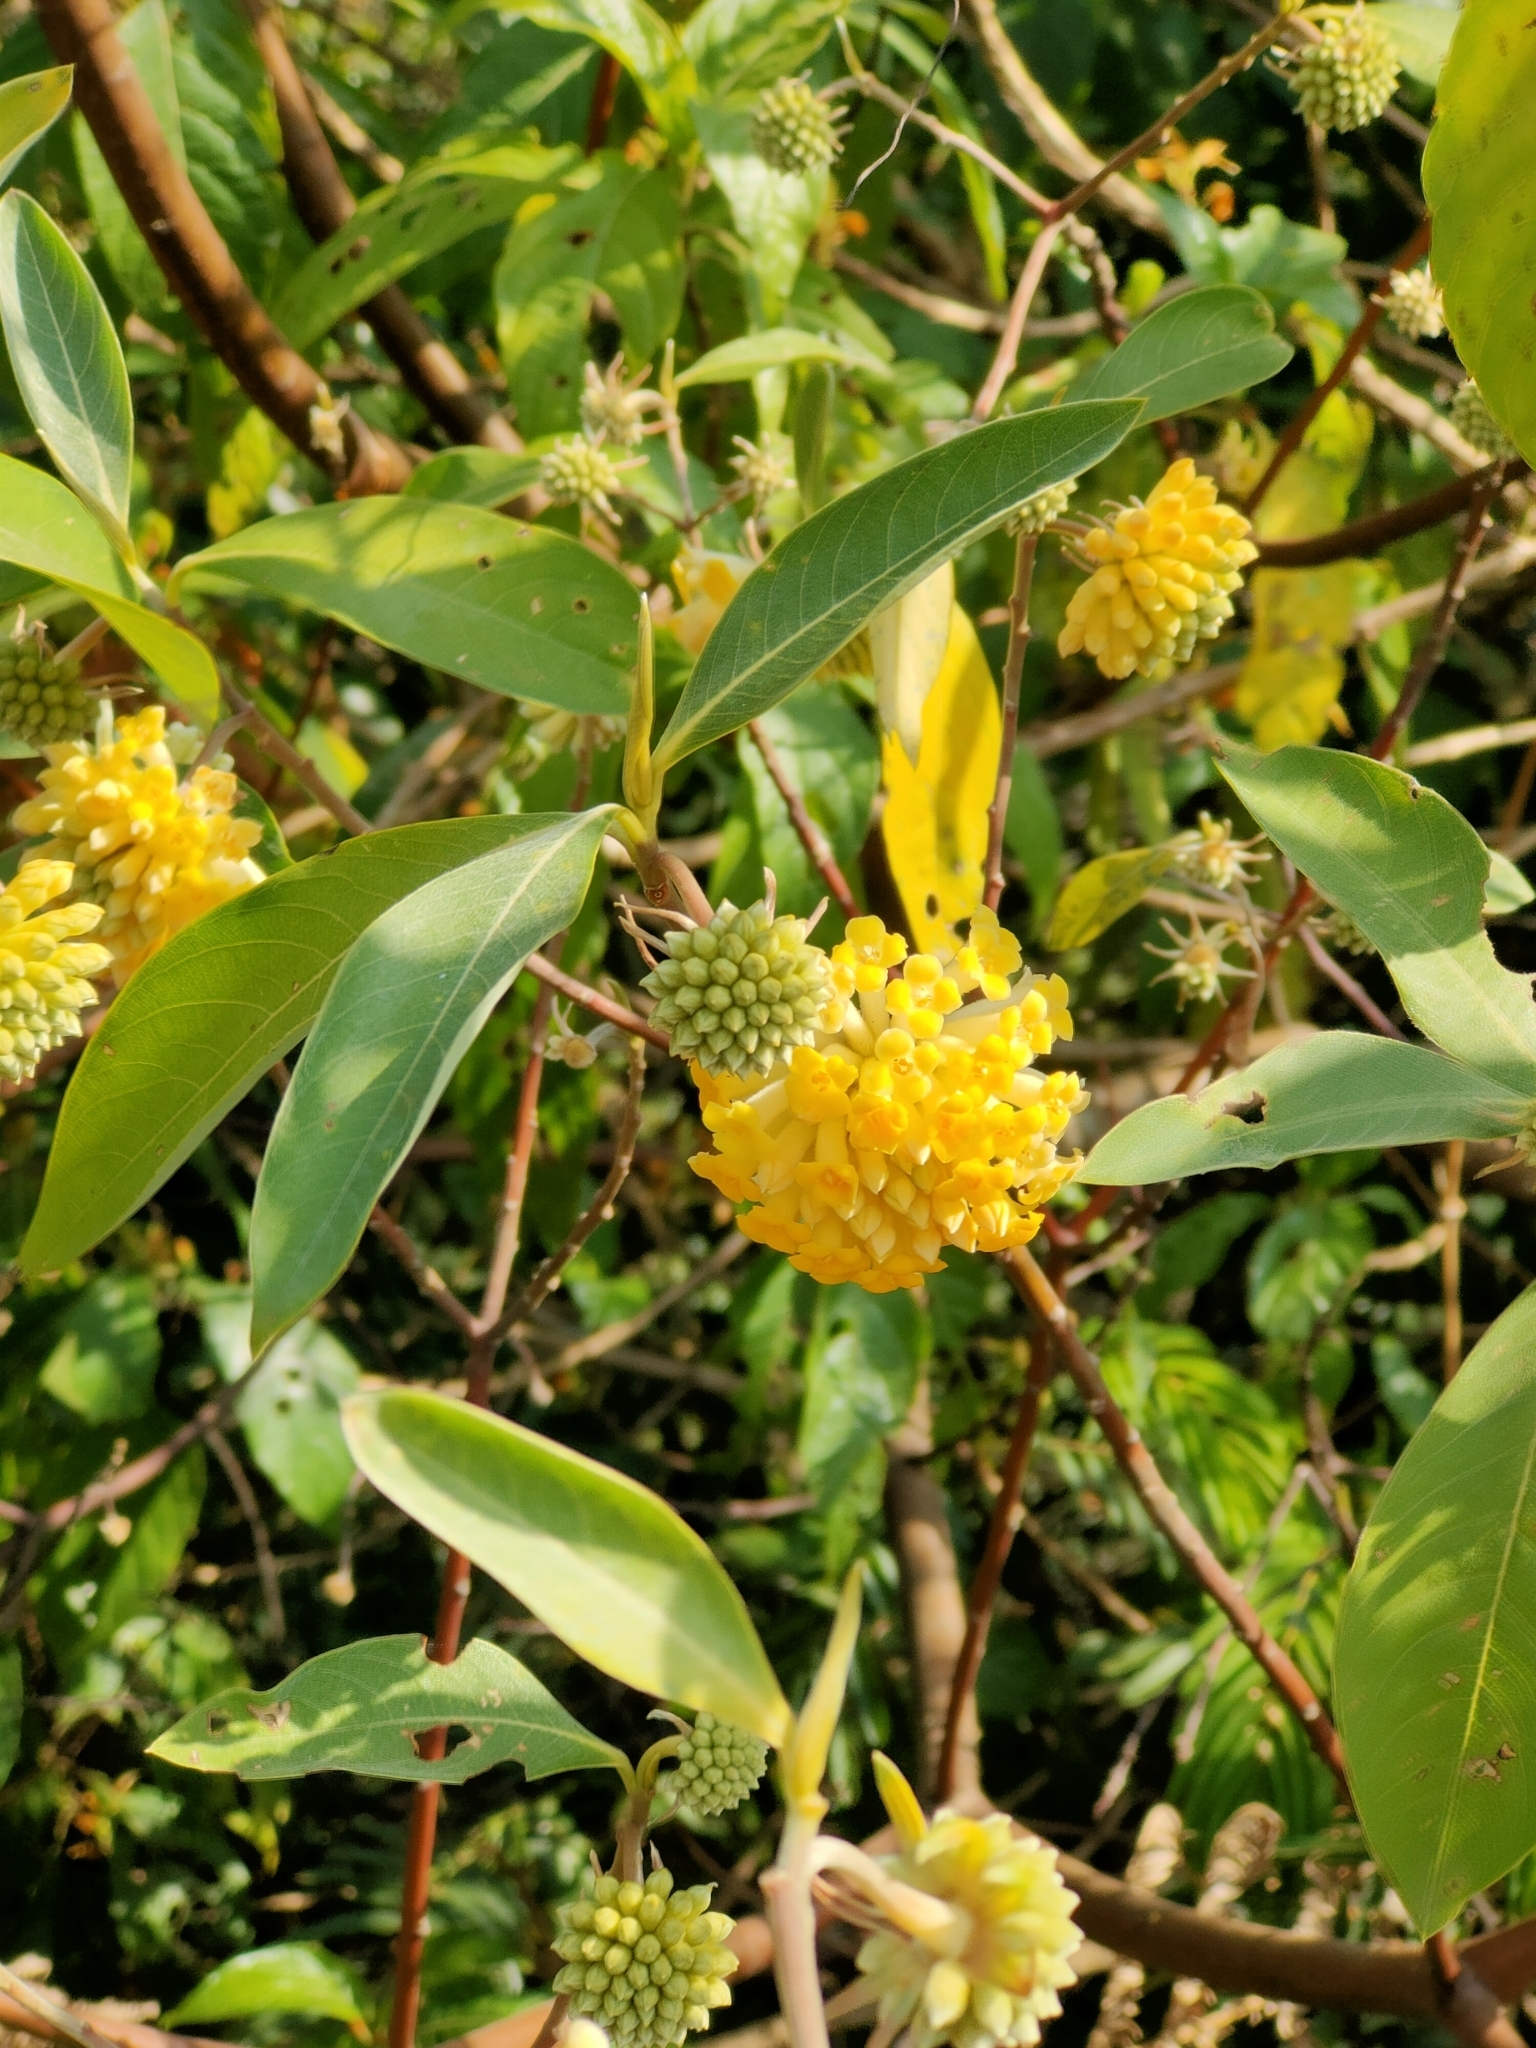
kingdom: Plantae
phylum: Tracheophyta
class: Magnoliopsida
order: Malvales
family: Thymelaeaceae
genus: Edgeworthia
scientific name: Edgeworthia gardneri
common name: Nepalese paperbush
